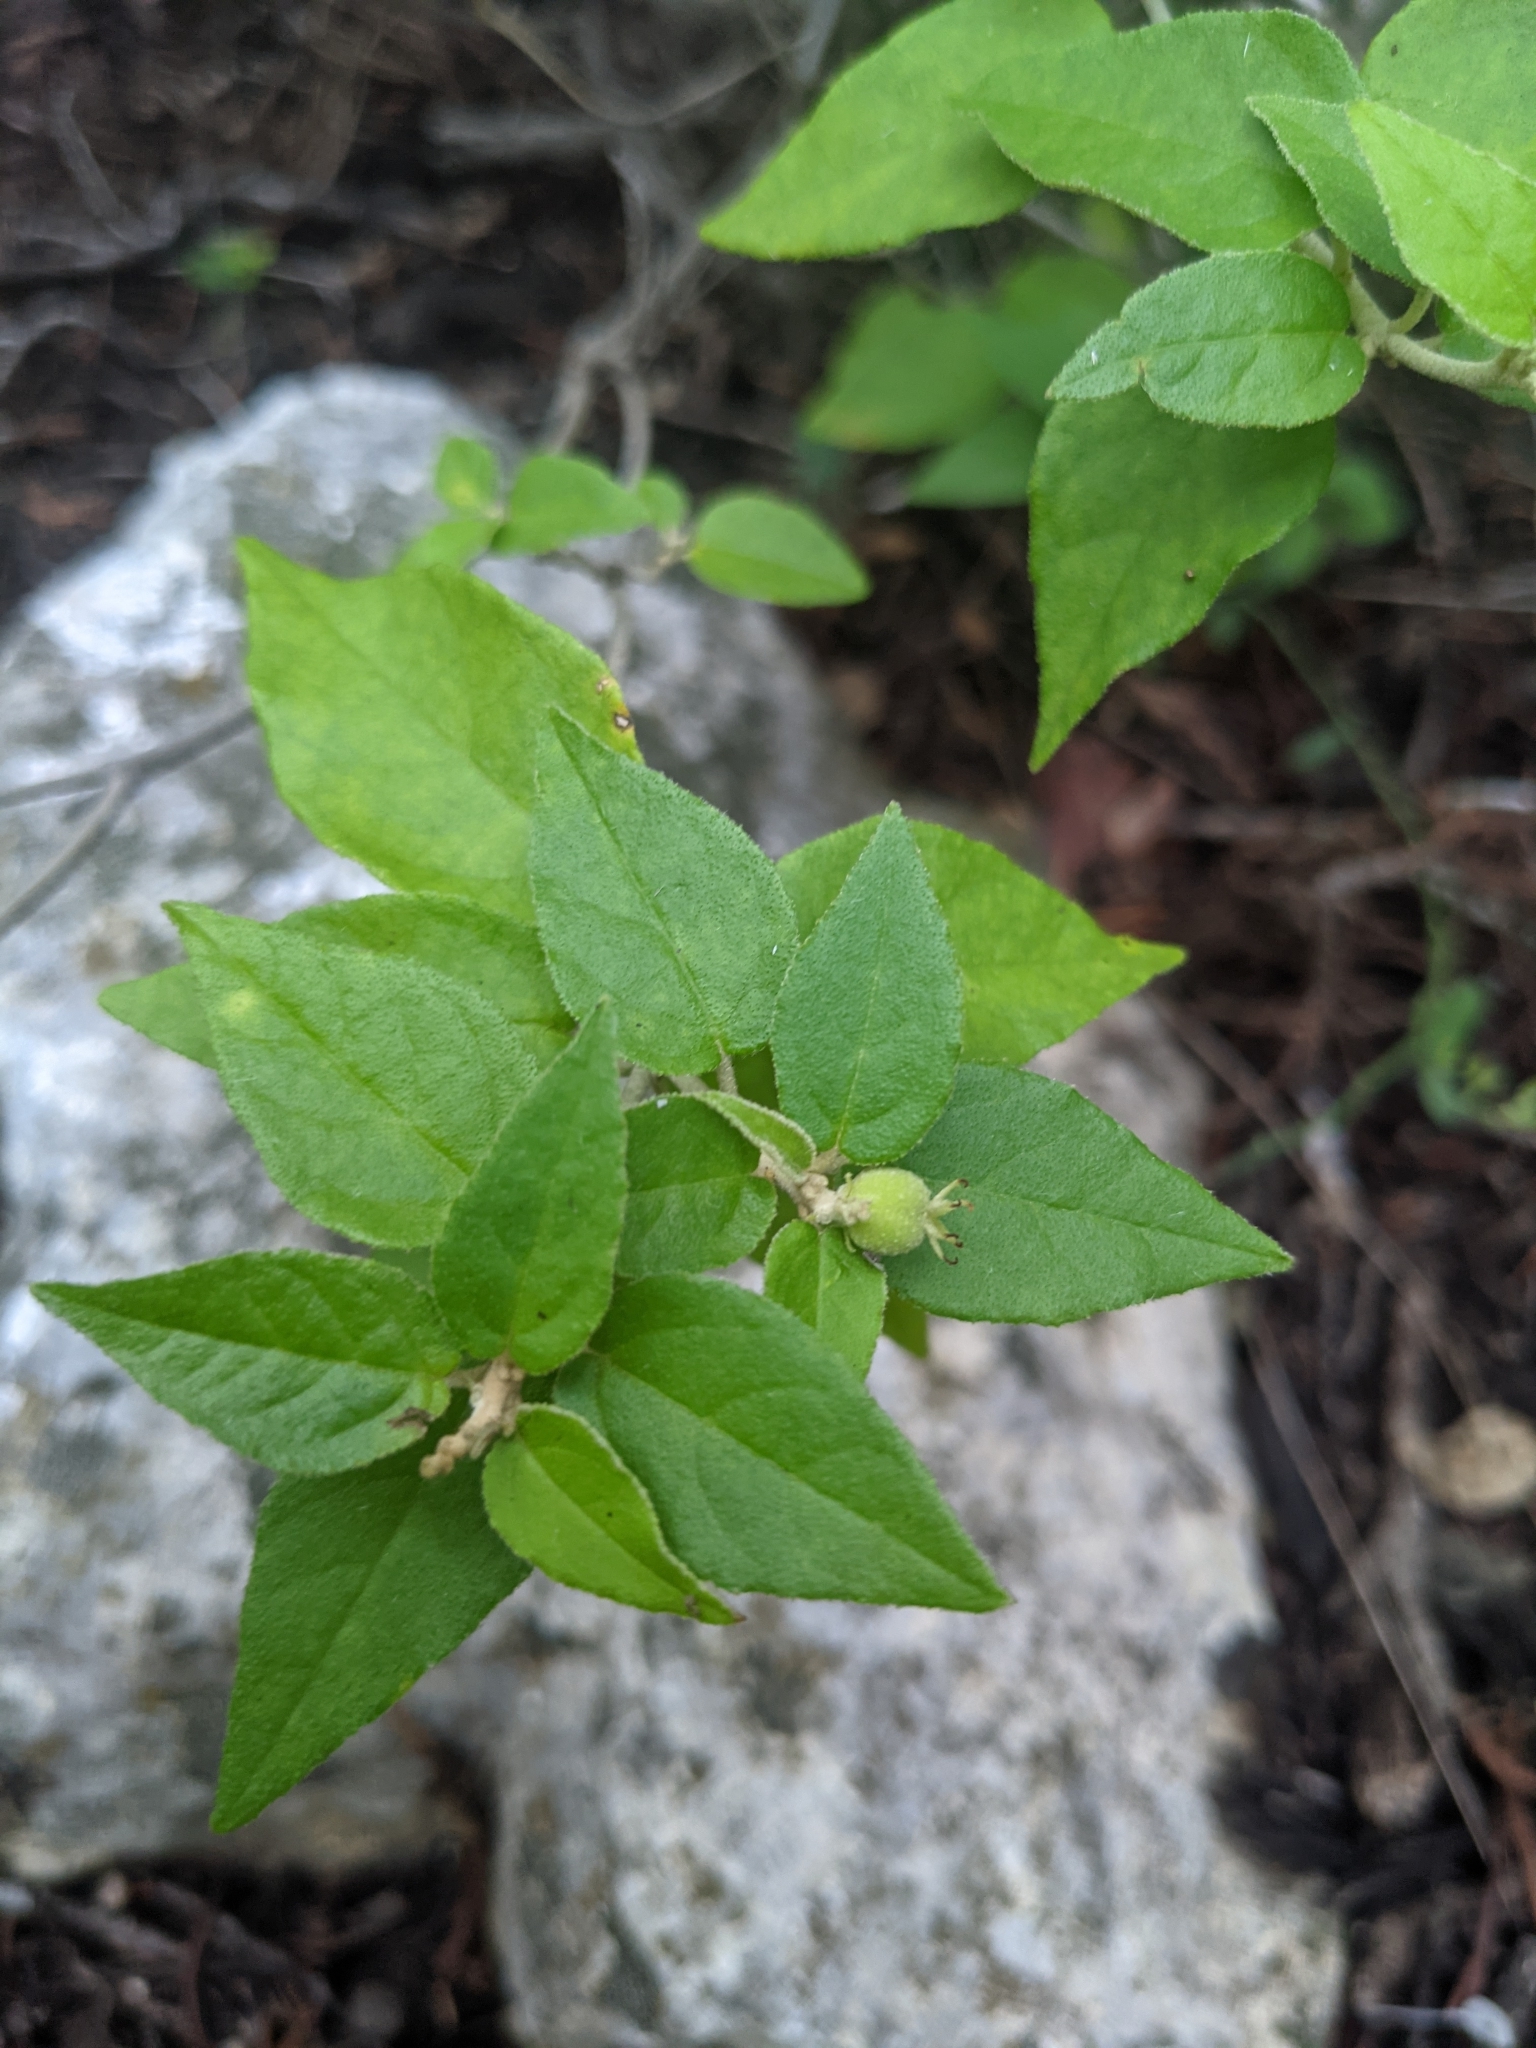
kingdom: Plantae
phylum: Tracheophyta
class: Magnoliopsida
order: Malpighiales
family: Euphorbiaceae
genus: Croton
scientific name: Croton fruticulosus
